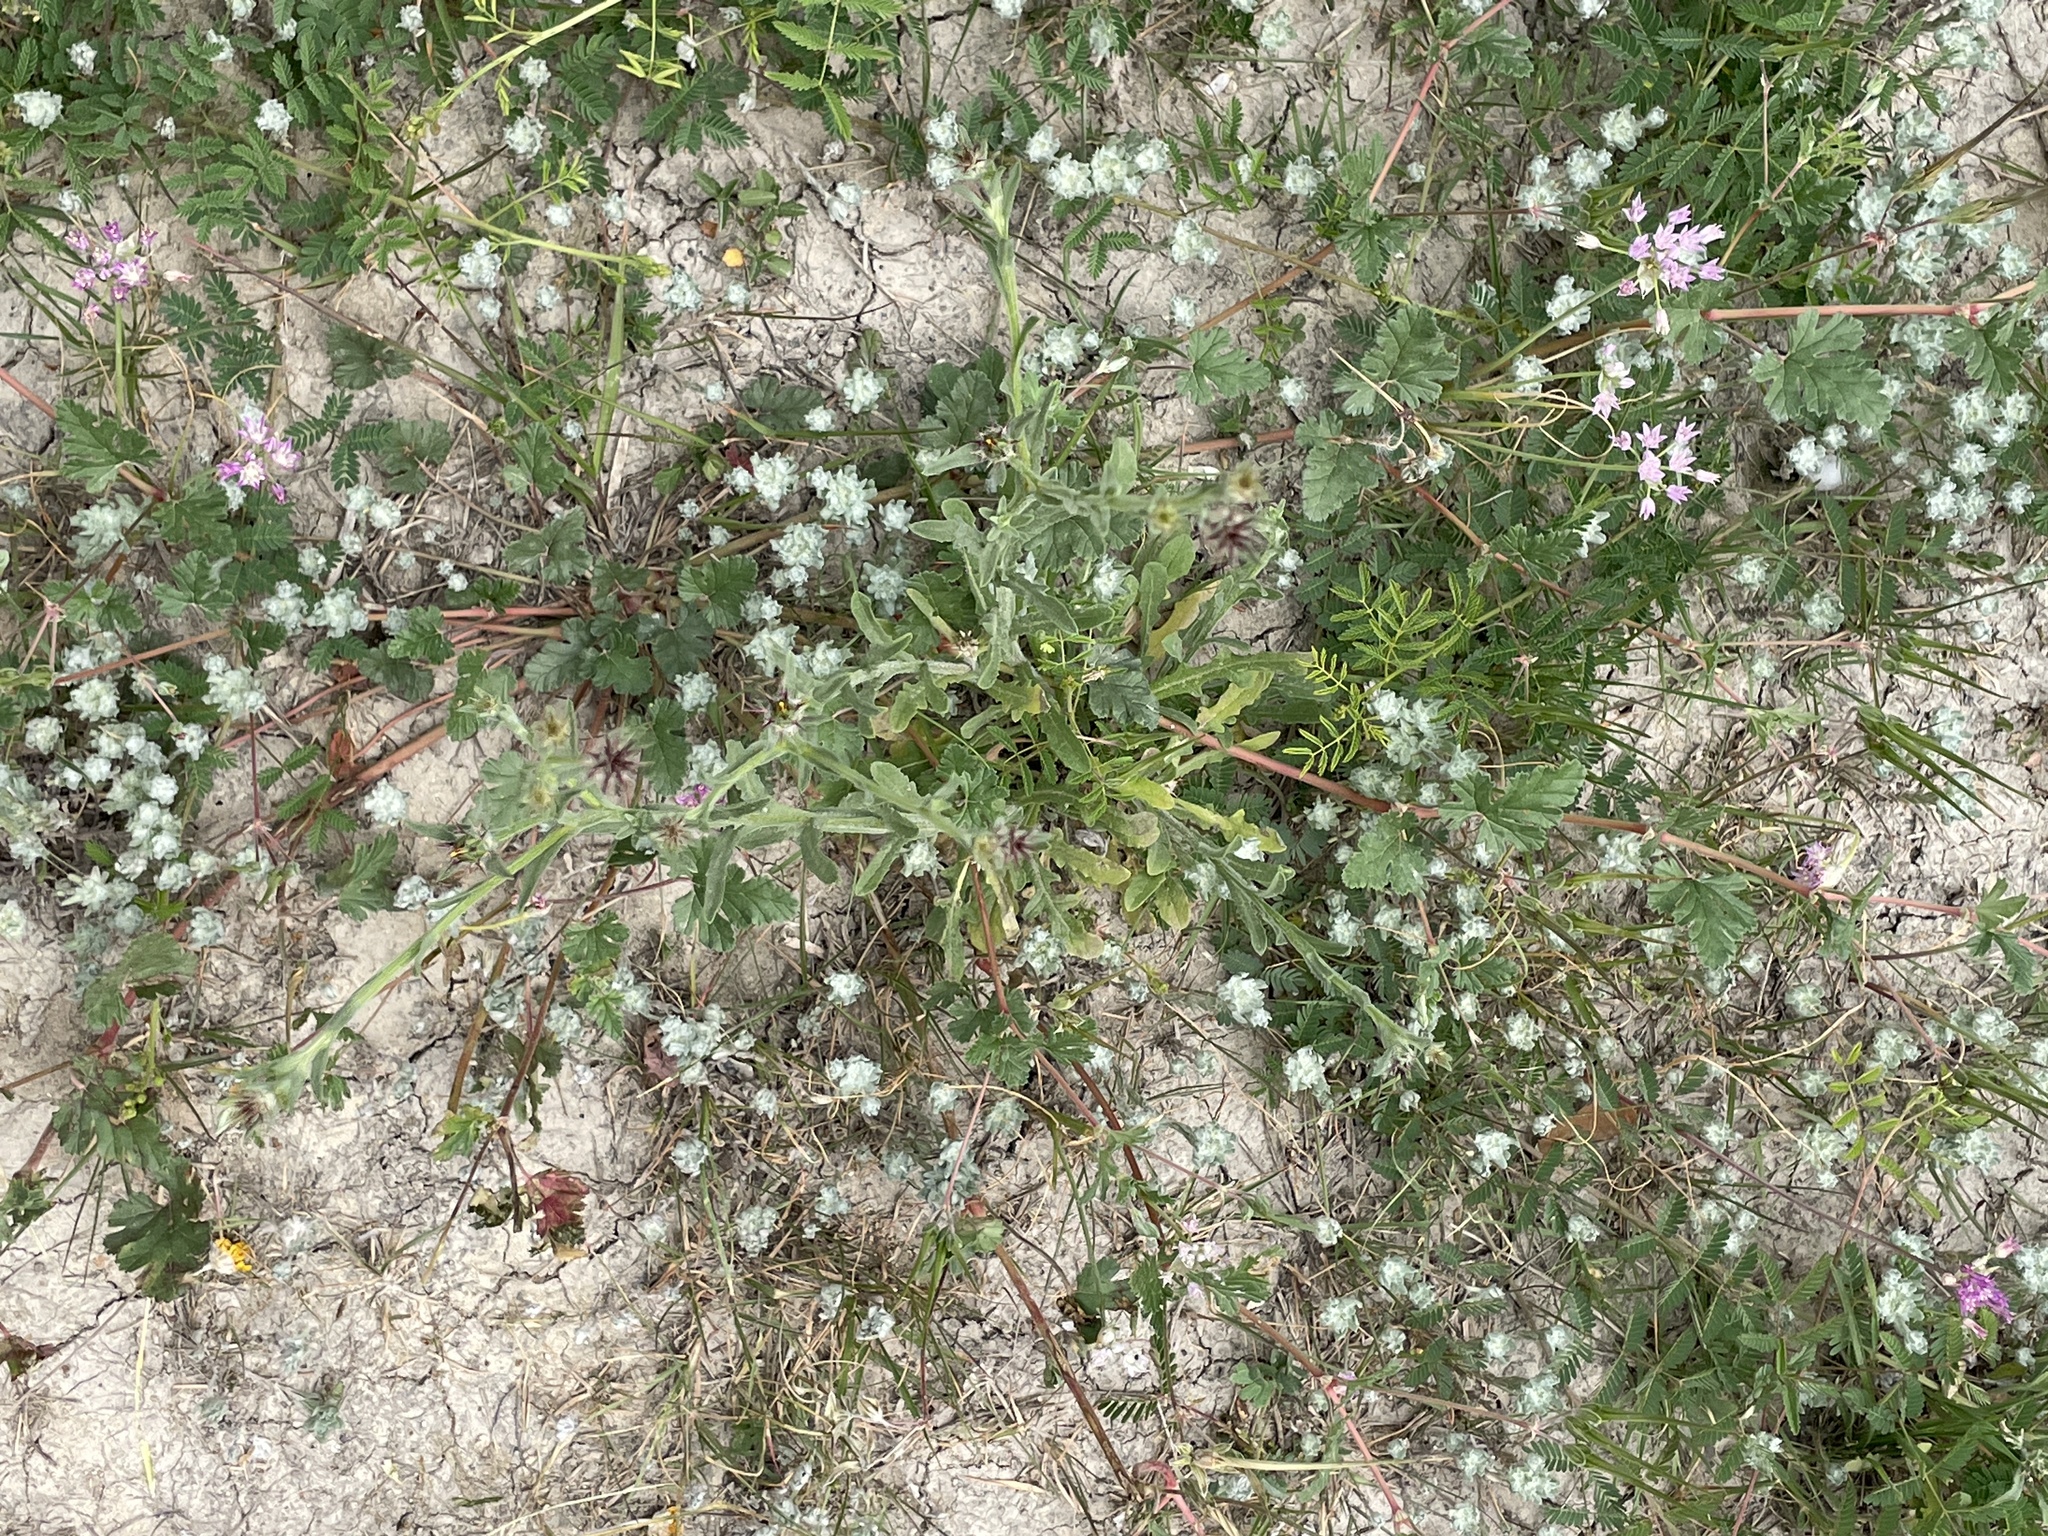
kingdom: Plantae
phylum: Tracheophyta
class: Magnoliopsida
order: Asterales
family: Asteraceae
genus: Centaurea
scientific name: Centaurea melitensis
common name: Maltese star-thistle
